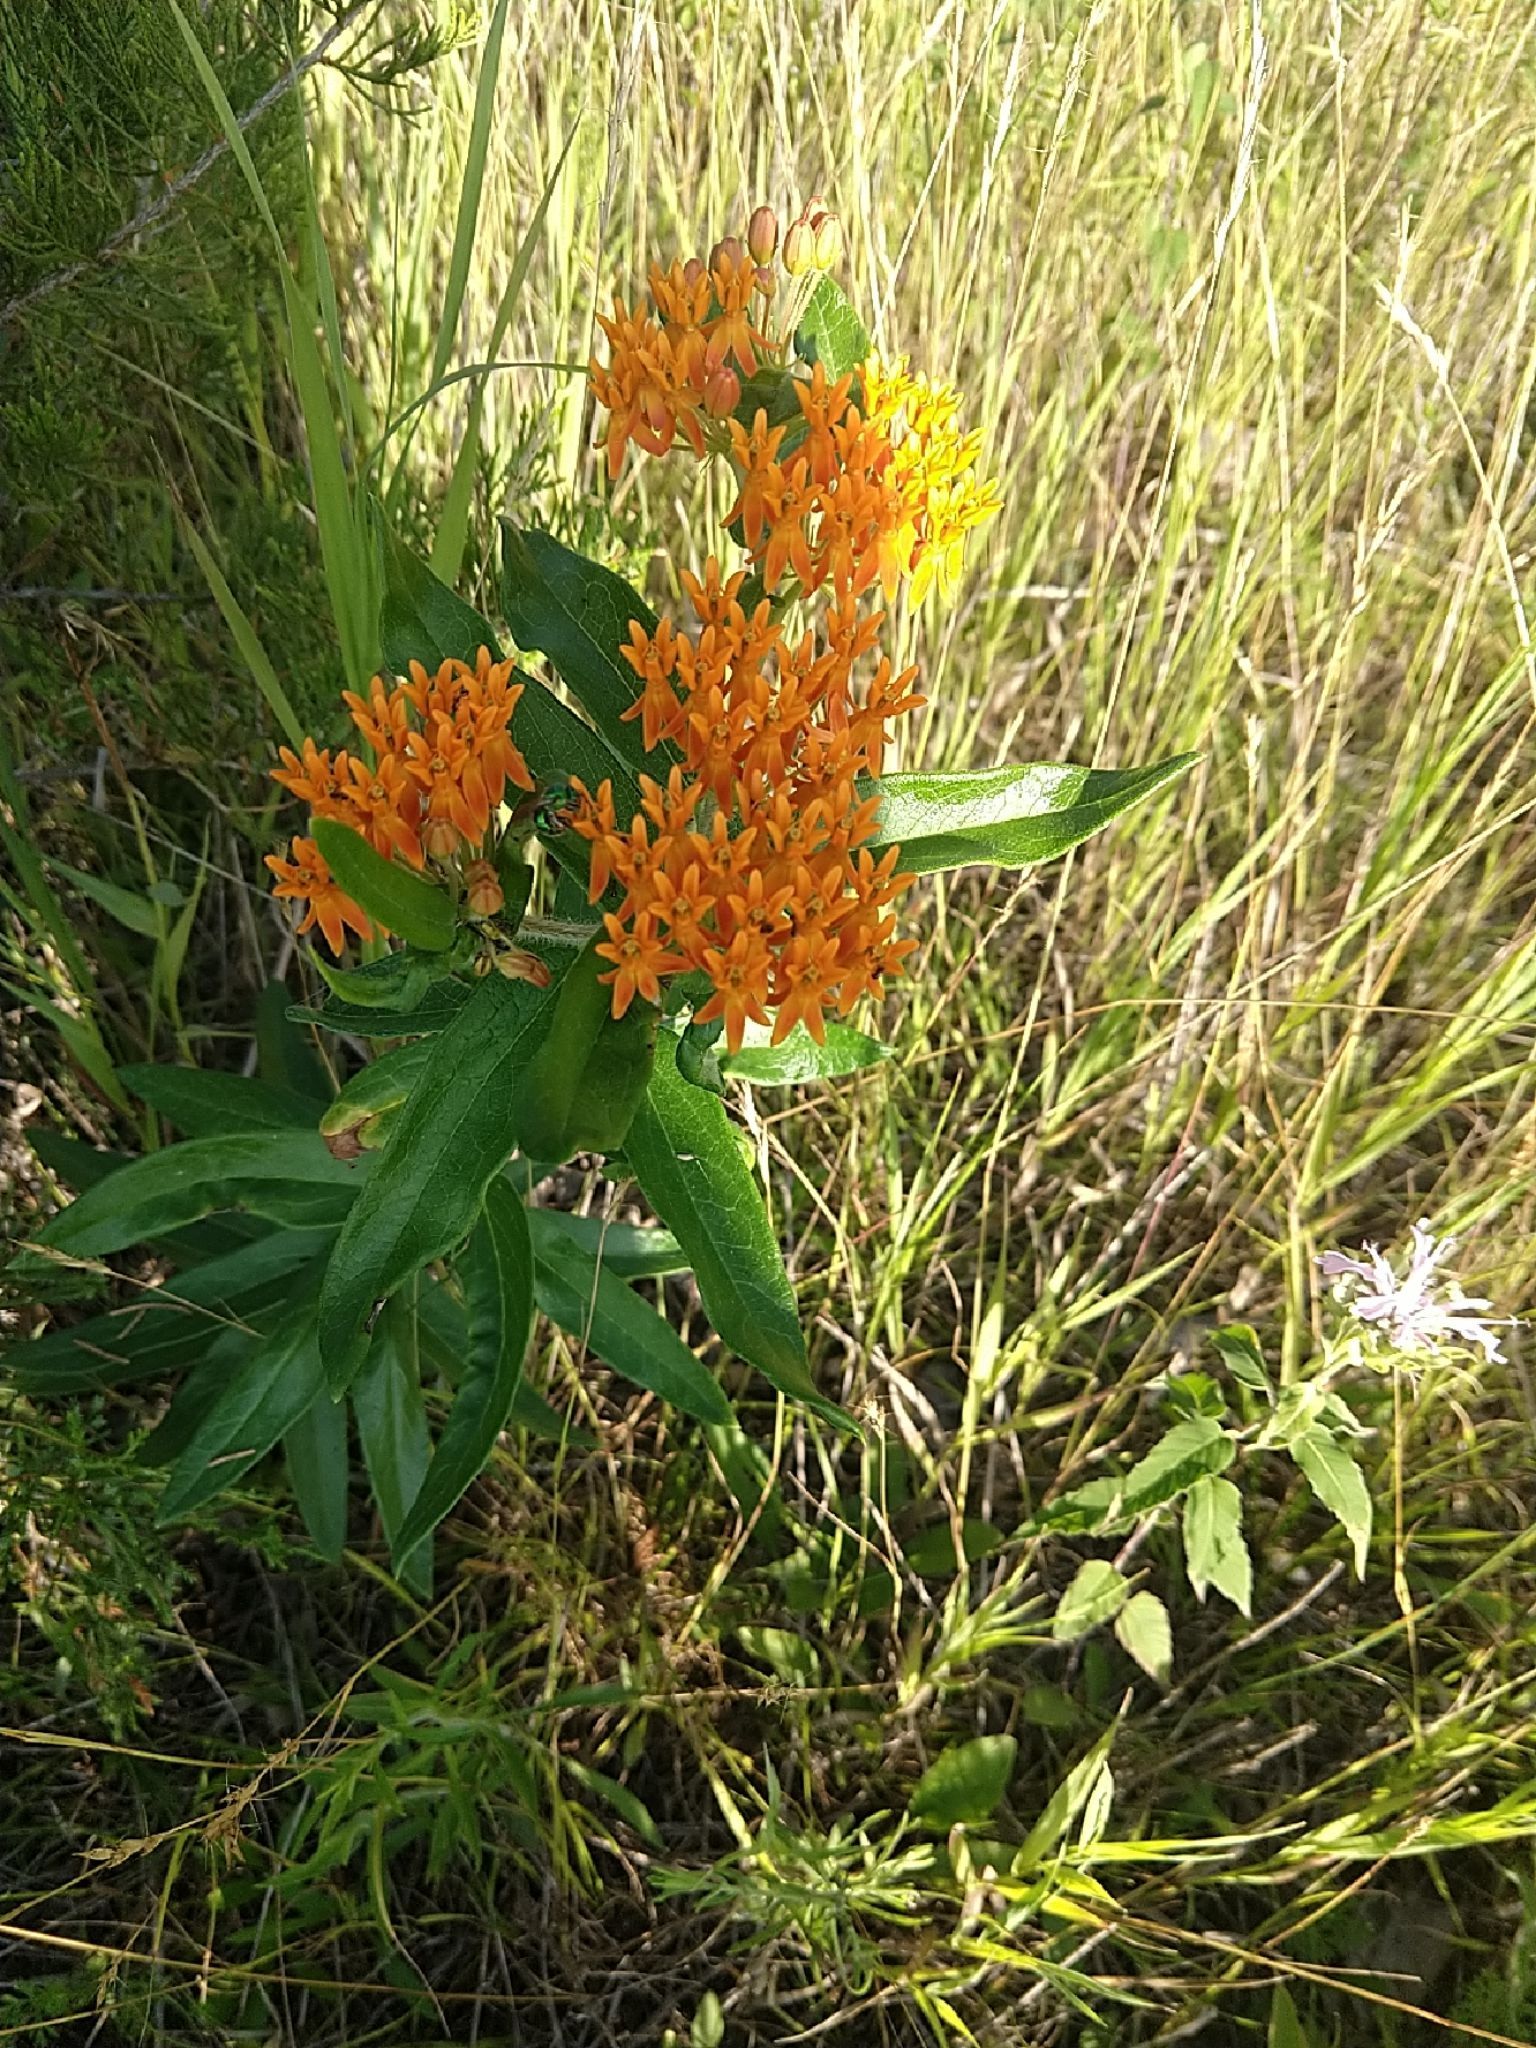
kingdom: Plantae
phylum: Tracheophyta
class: Magnoliopsida
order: Gentianales
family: Apocynaceae
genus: Asclepias
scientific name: Asclepias tuberosa
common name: Butterfly milkweed
